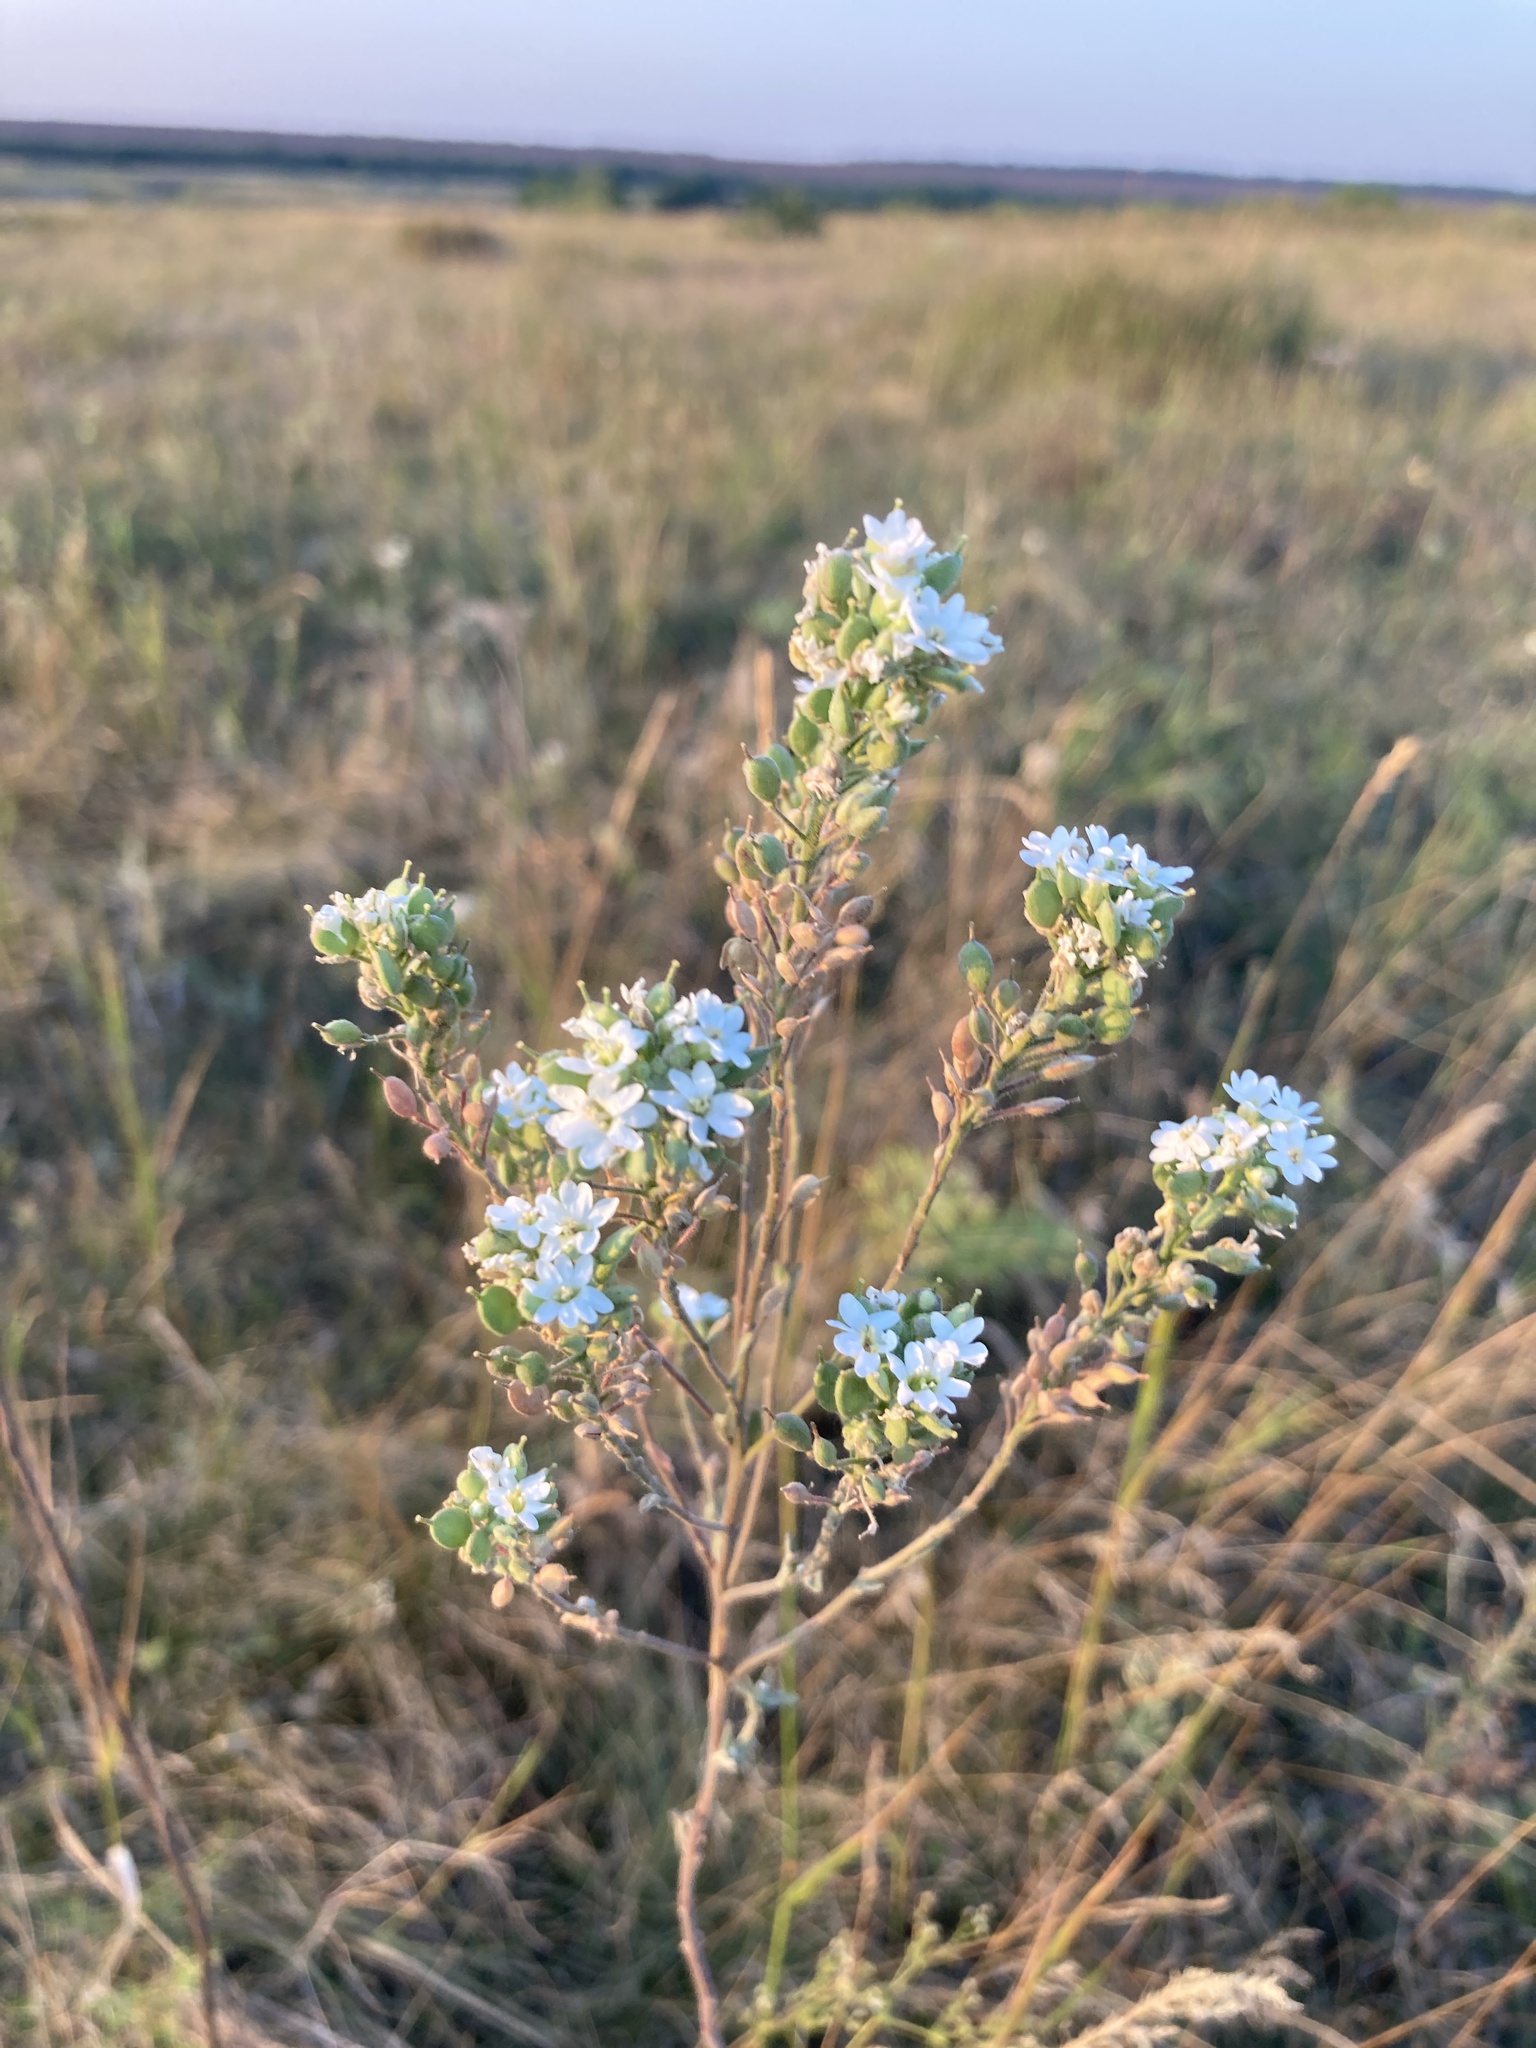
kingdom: Plantae
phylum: Tracheophyta
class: Magnoliopsida
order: Brassicales
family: Brassicaceae
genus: Berteroa
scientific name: Berteroa incana
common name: Hoary alison
